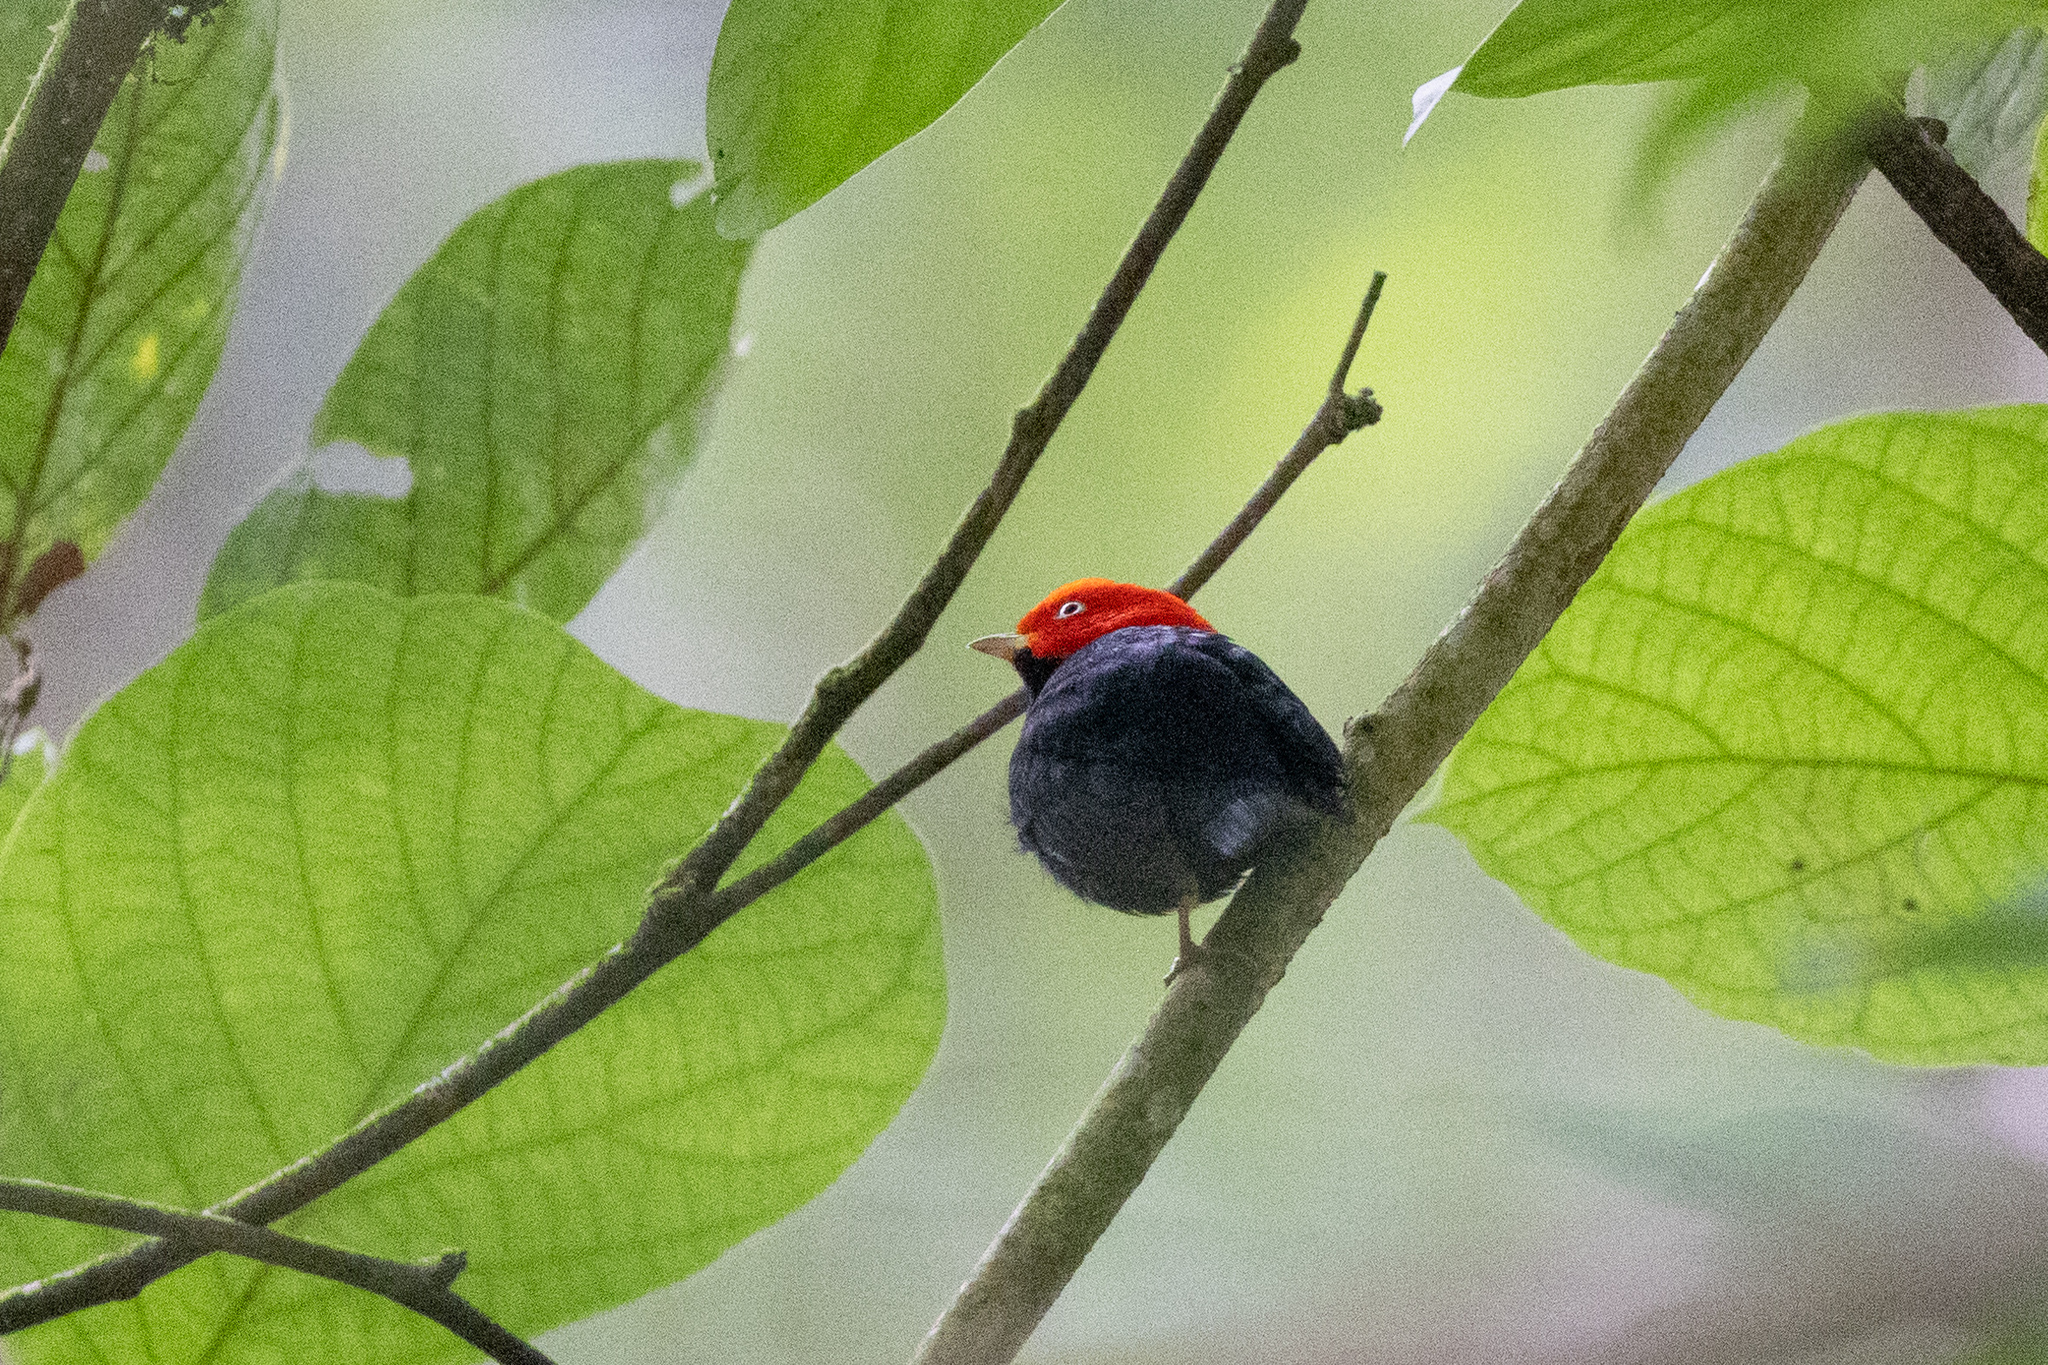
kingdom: Animalia
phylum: Chordata
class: Aves
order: Passeriformes
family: Pipridae
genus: Pipra
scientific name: Pipra mentalis
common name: Red-capped manakin
